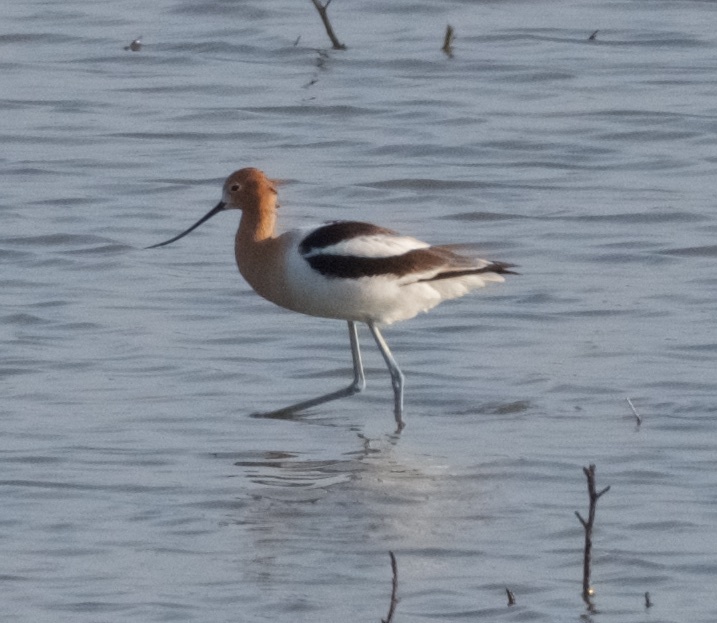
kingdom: Animalia
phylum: Chordata
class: Aves
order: Charadriiformes
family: Recurvirostridae
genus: Recurvirostra
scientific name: Recurvirostra americana
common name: American avocet
